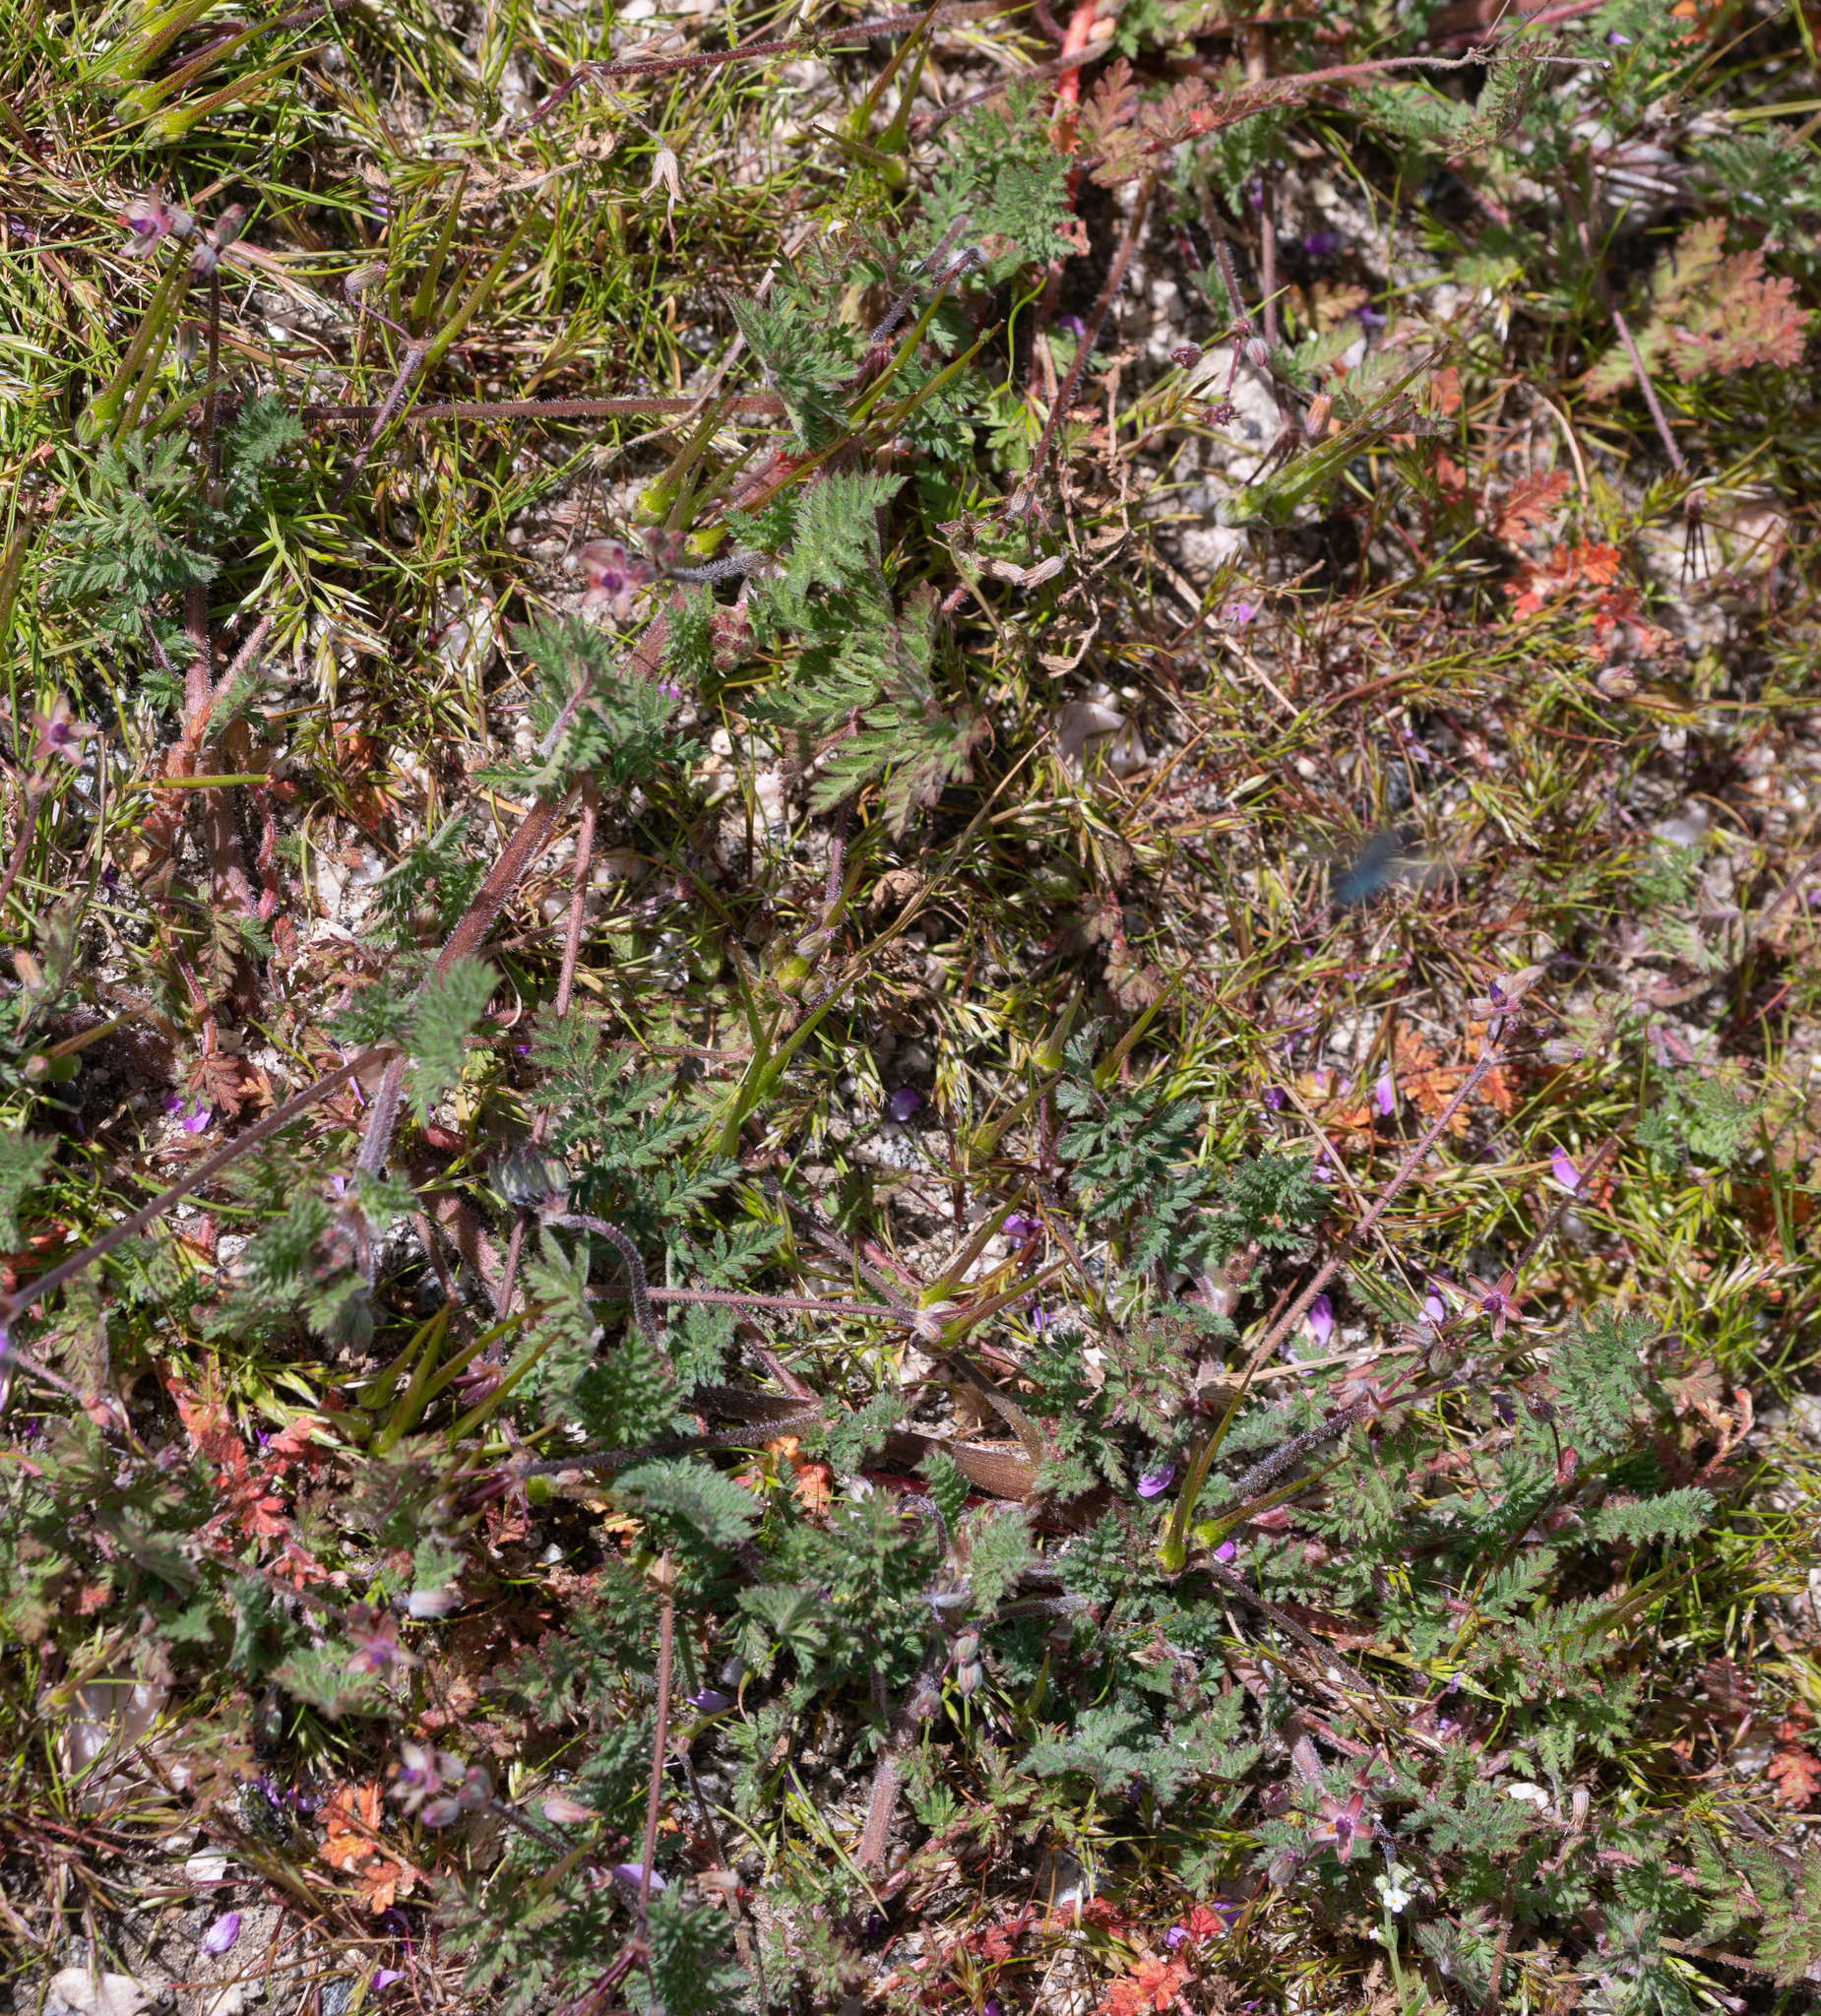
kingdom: Plantae
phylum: Tracheophyta
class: Magnoliopsida
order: Geraniales
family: Geraniaceae
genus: Erodium
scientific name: Erodium cicutarium
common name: Common stork's-bill
